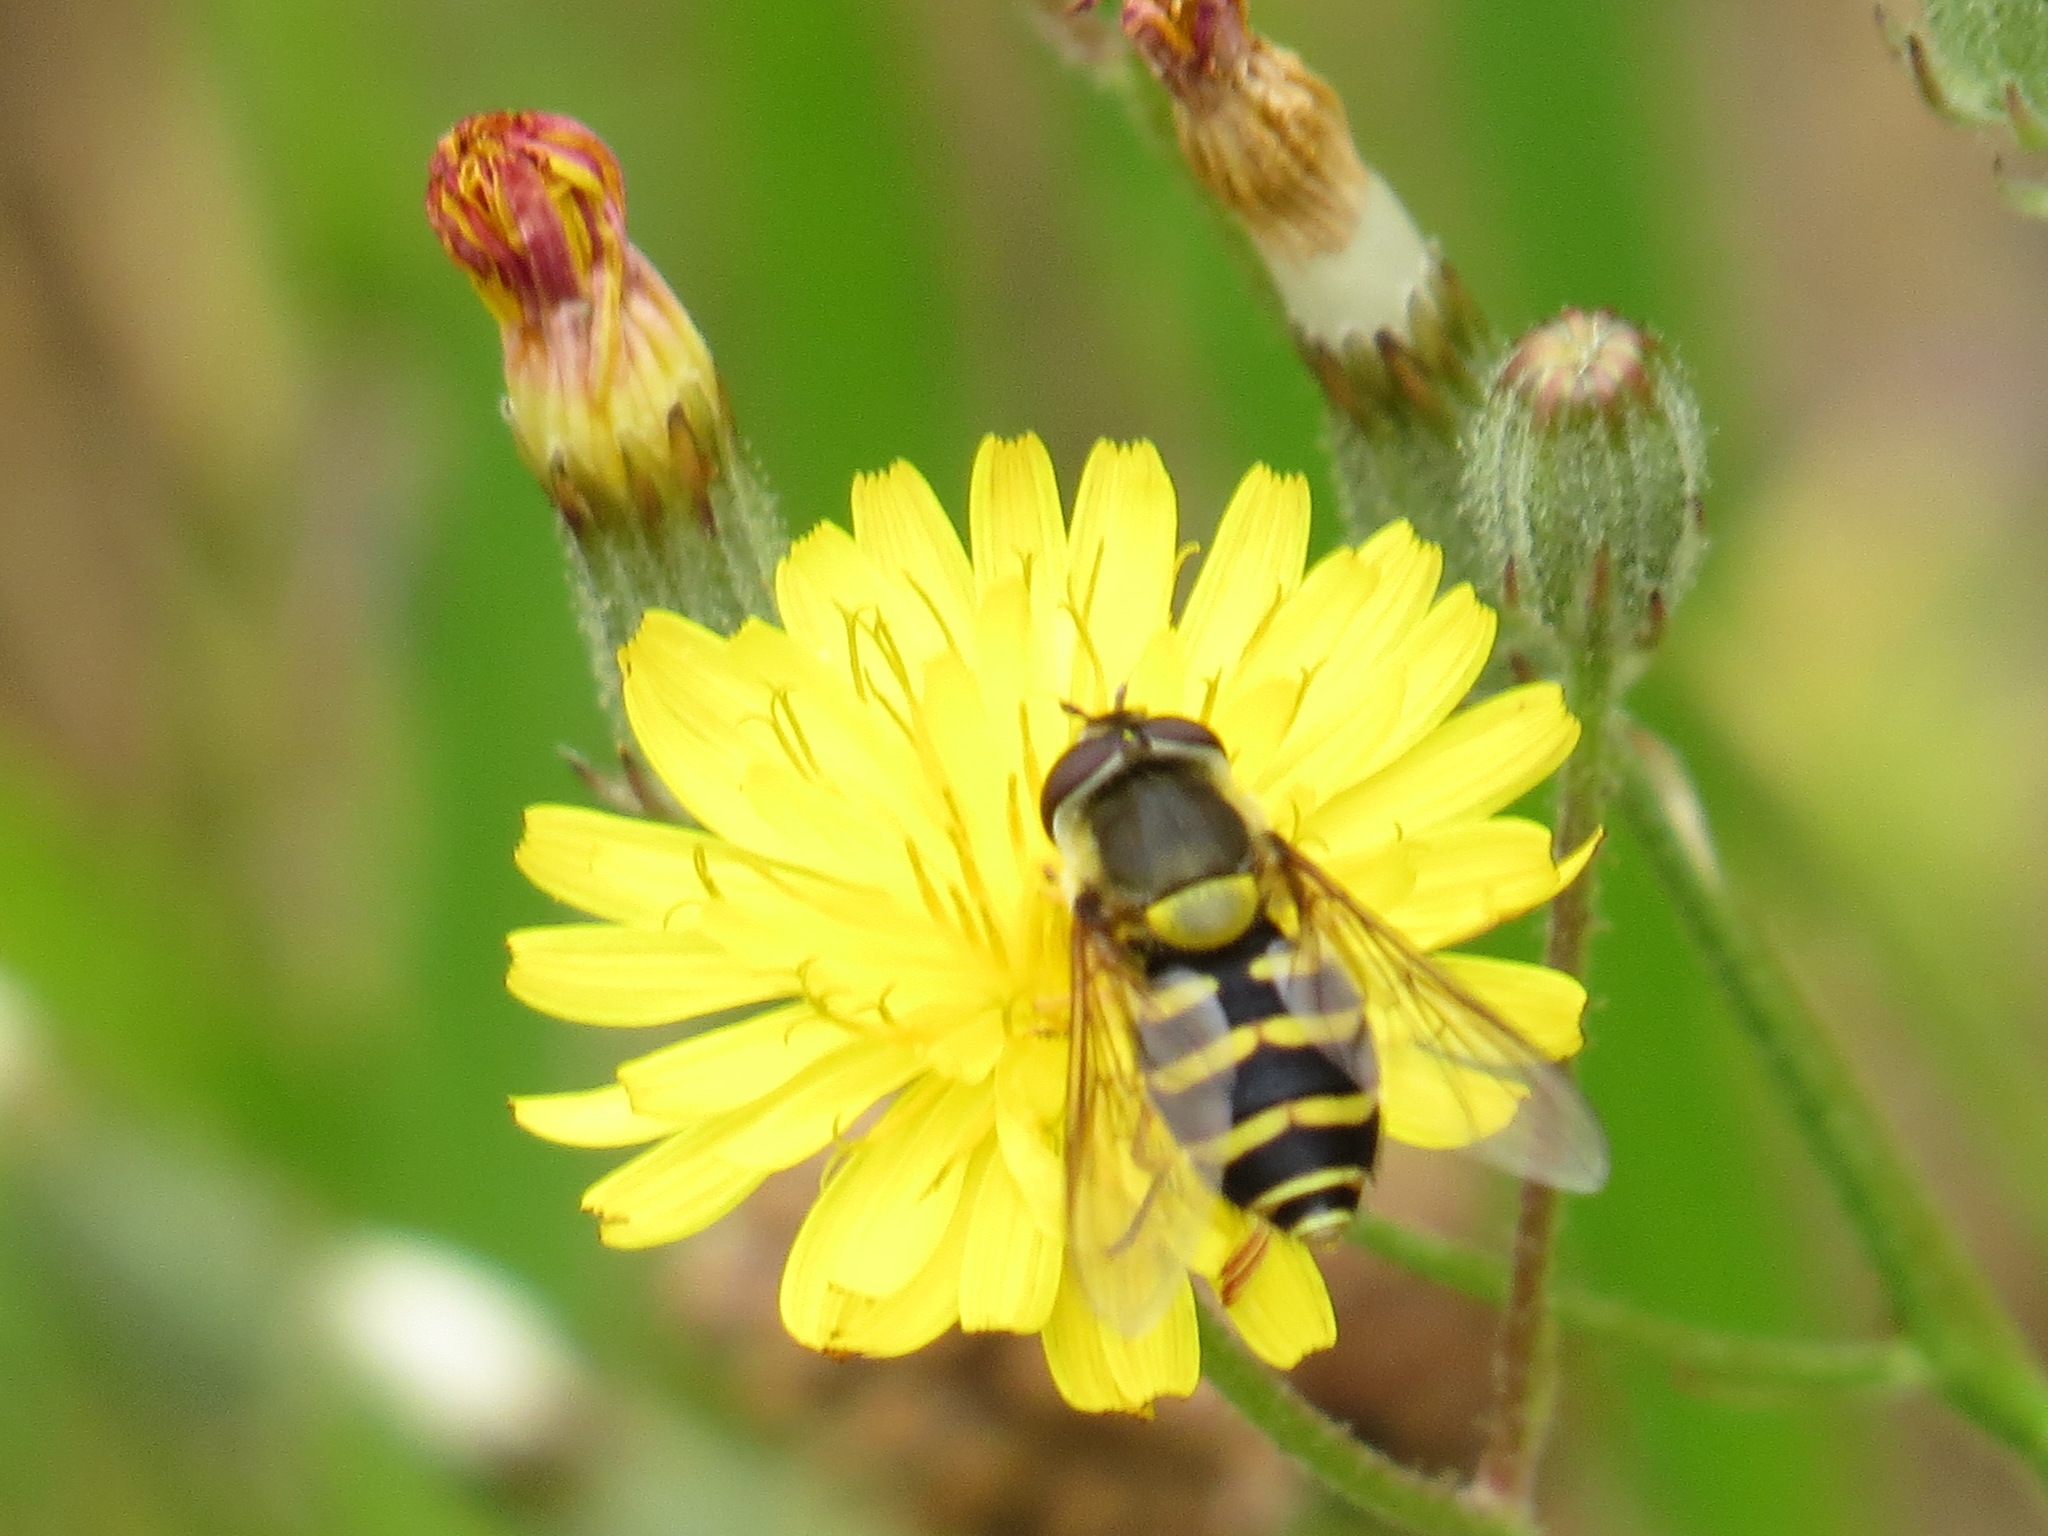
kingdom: Animalia
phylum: Arthropoda
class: Insecta
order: Diptera
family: Syrphidae
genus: Syrphus
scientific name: Syrphus opinator
